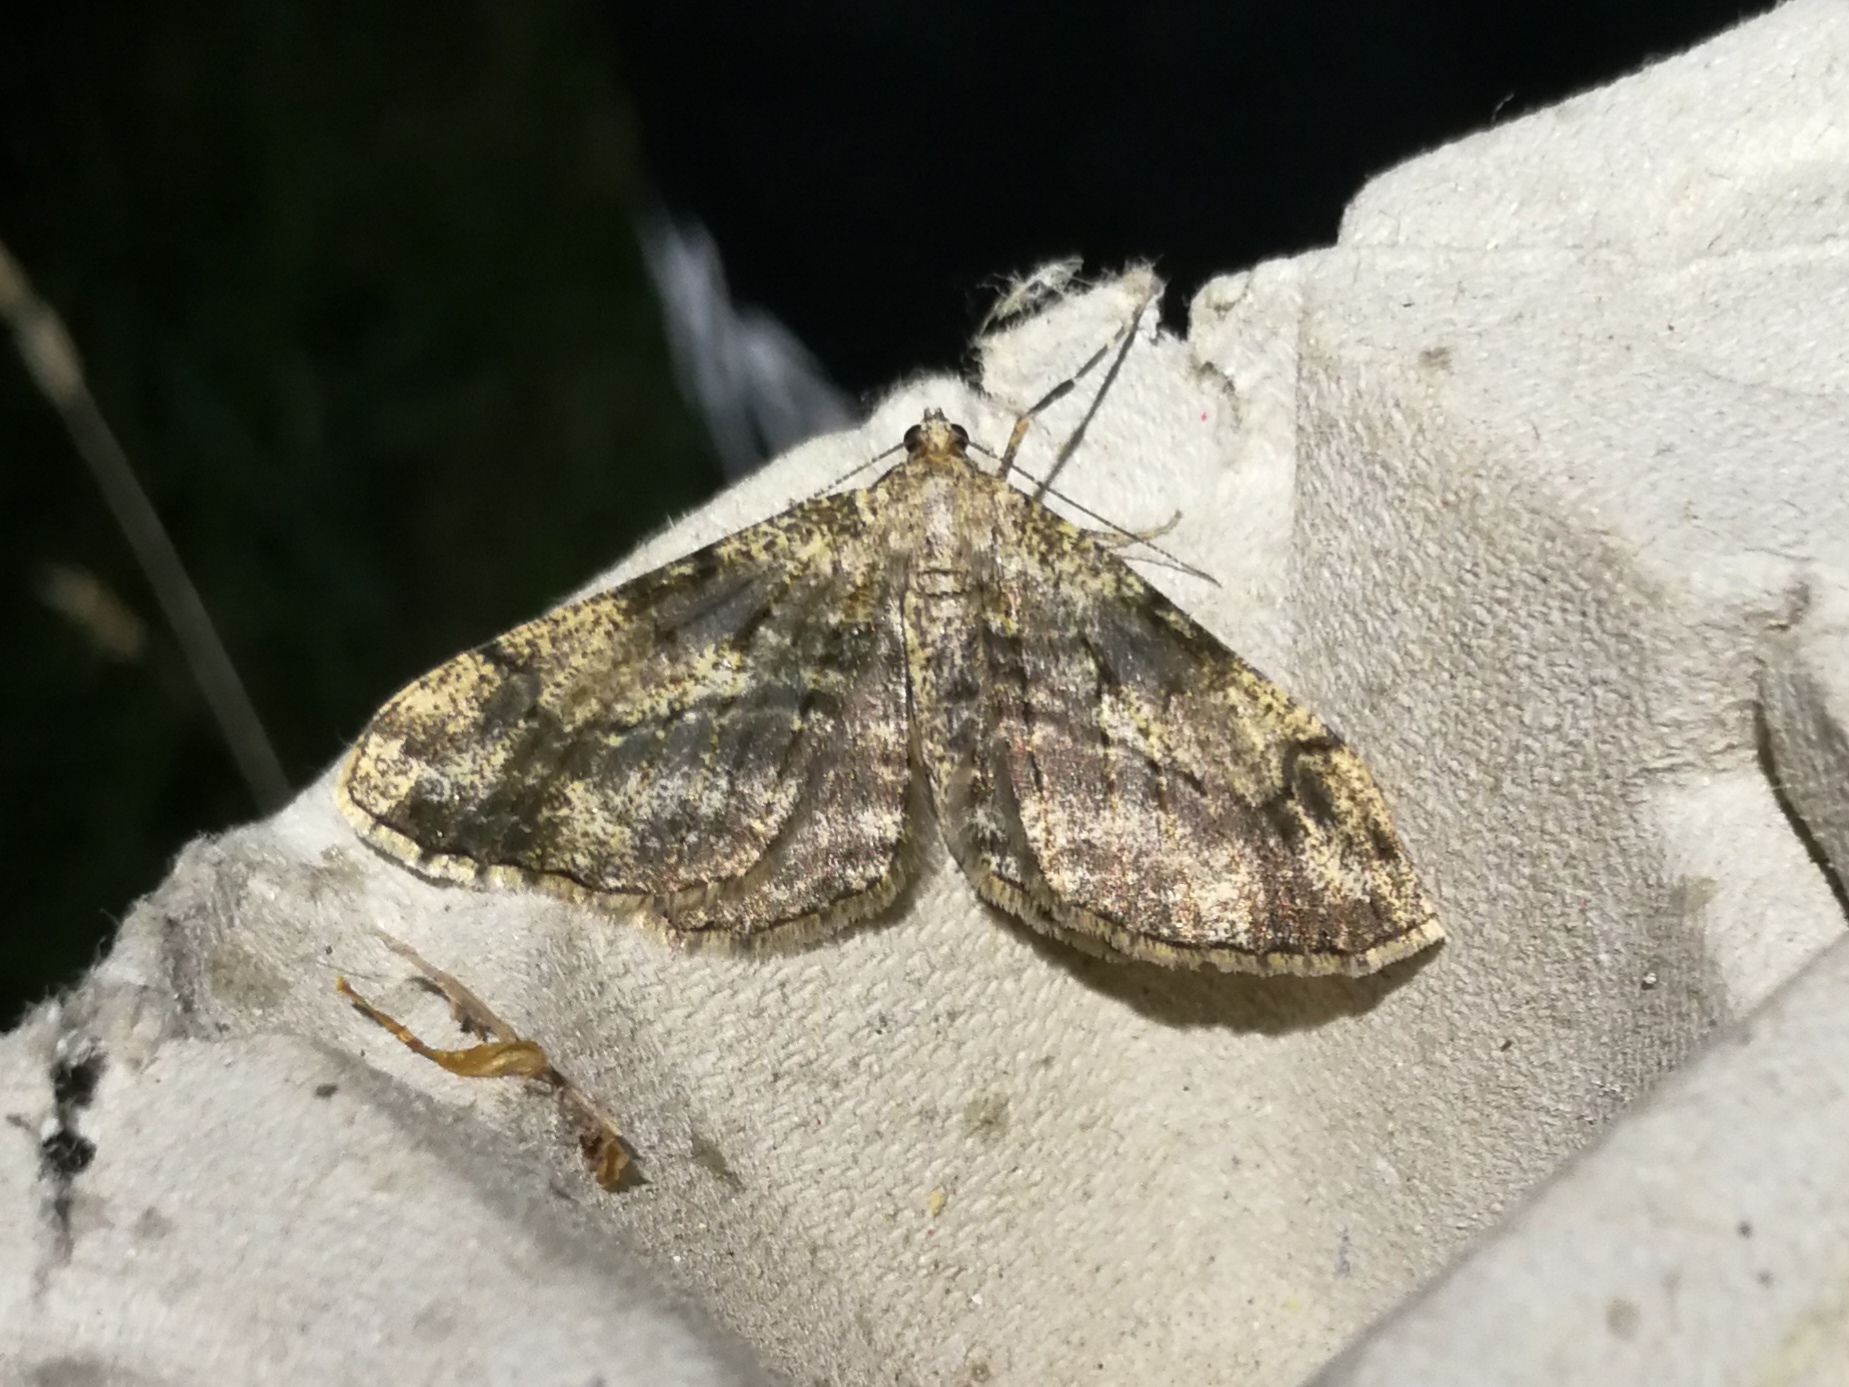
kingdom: Animalia
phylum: Arthropoda
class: Insecta
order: Lepidoptera
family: Geometridae
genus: Peribatodes
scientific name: Peribatodes rhomboidaria
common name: Willow beauty
